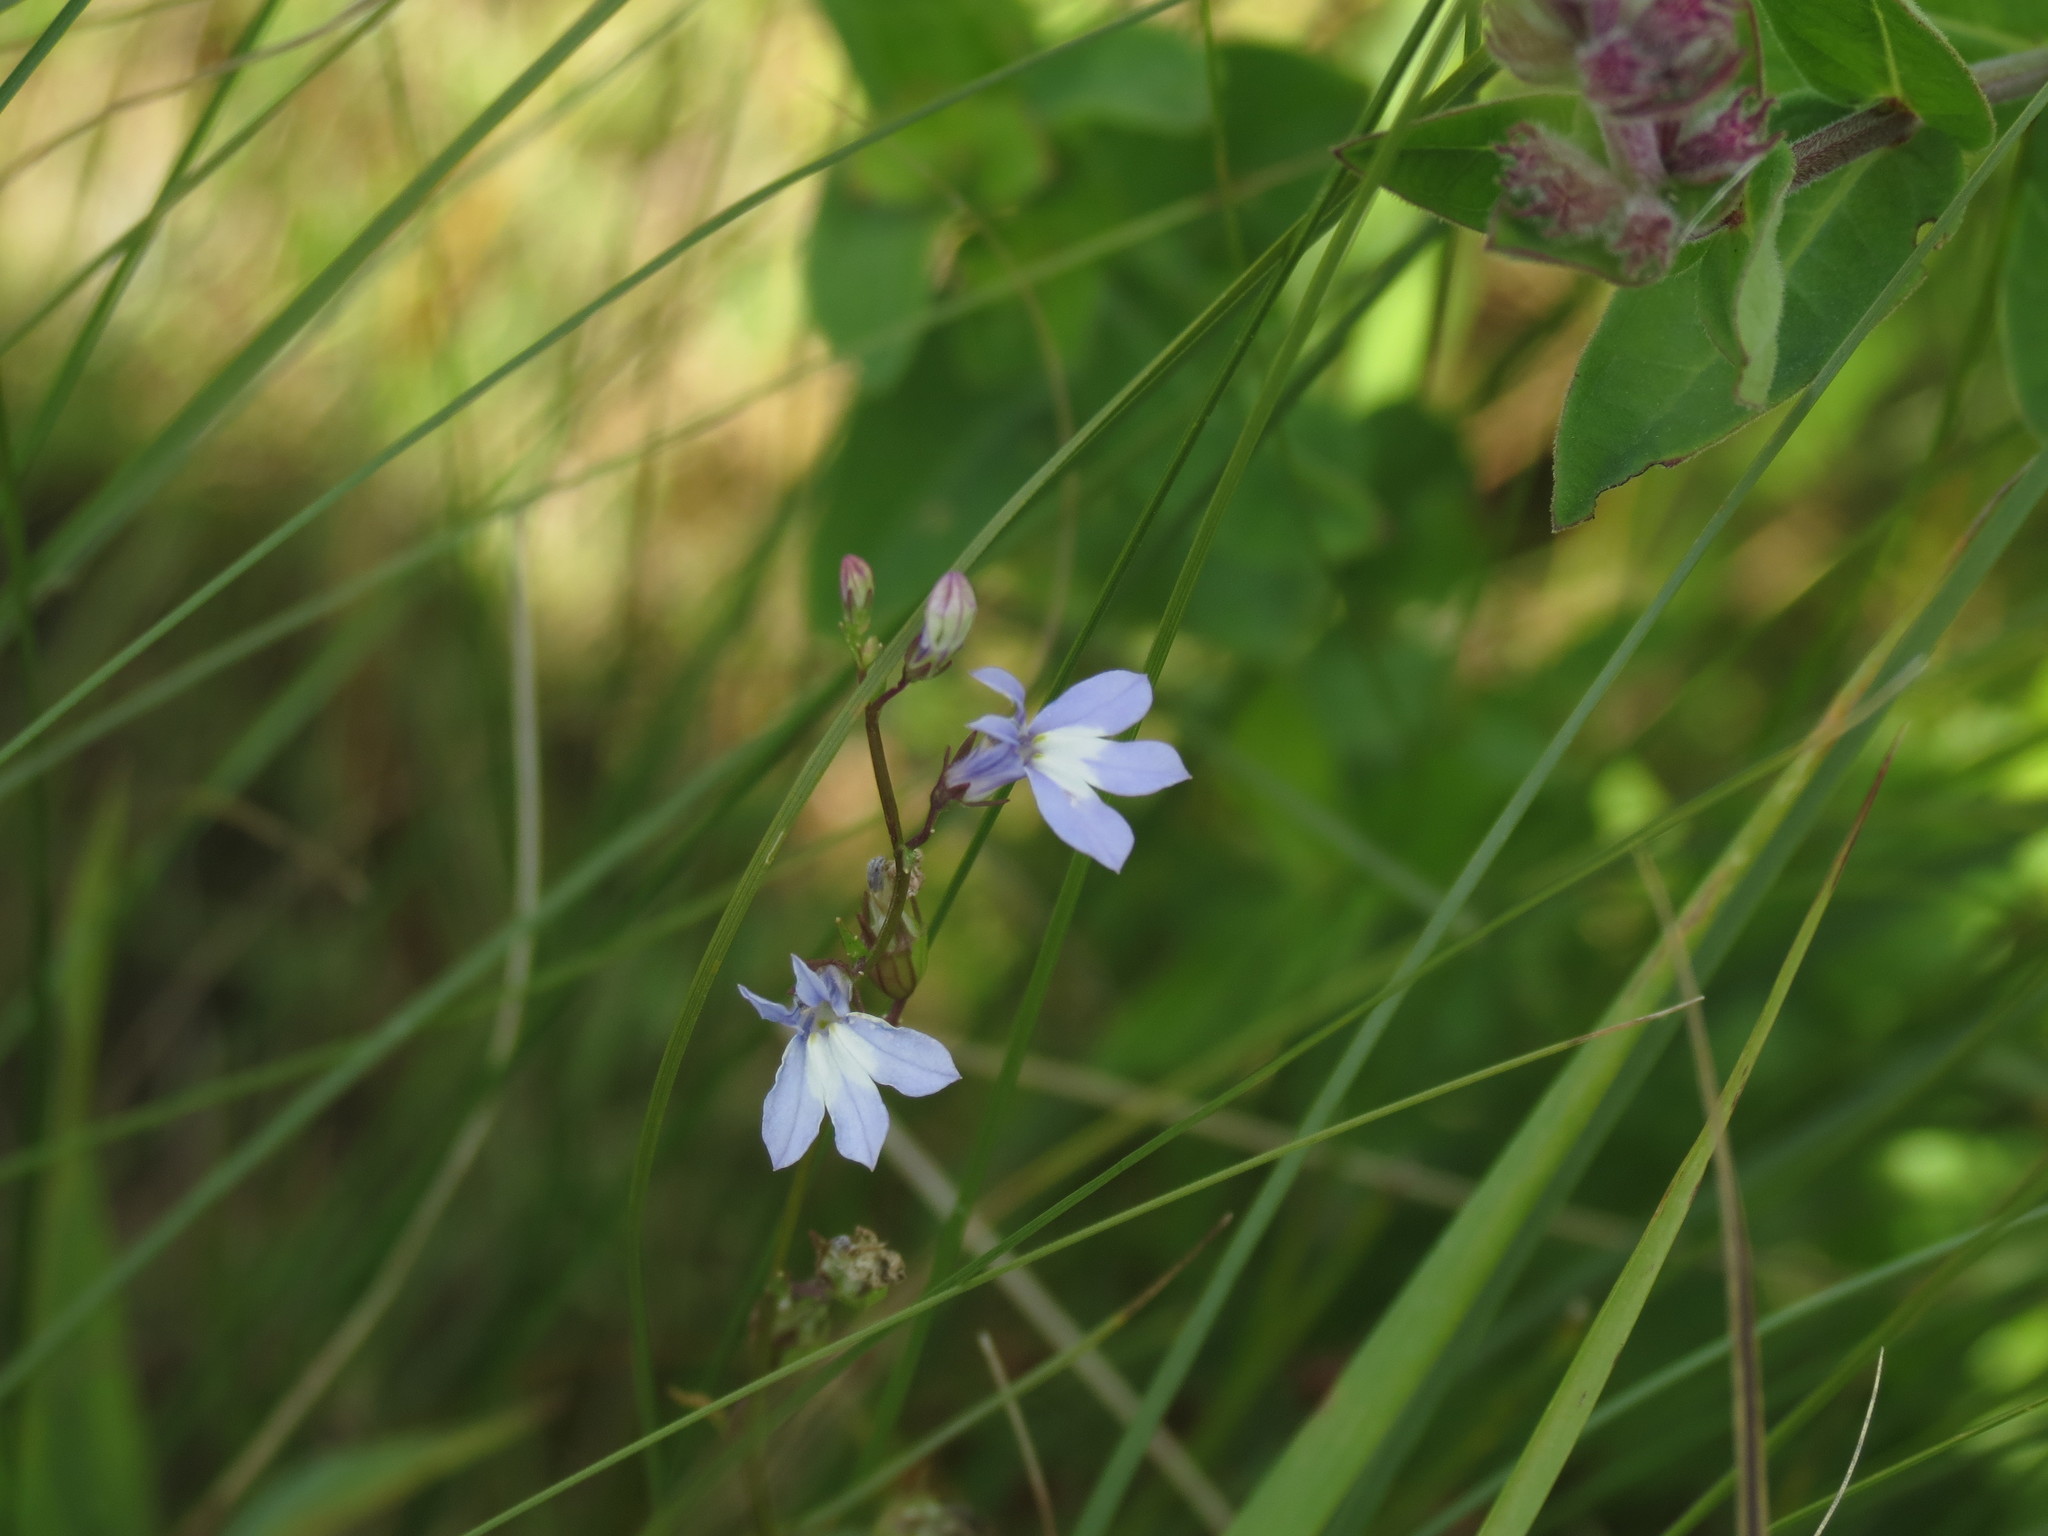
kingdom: Plantae
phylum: Tracheophyta
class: Magnoliopsida
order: Asterales
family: Campanulaceae
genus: Lobelia
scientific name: Lobelia kalmii
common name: Kalm's lobelia
